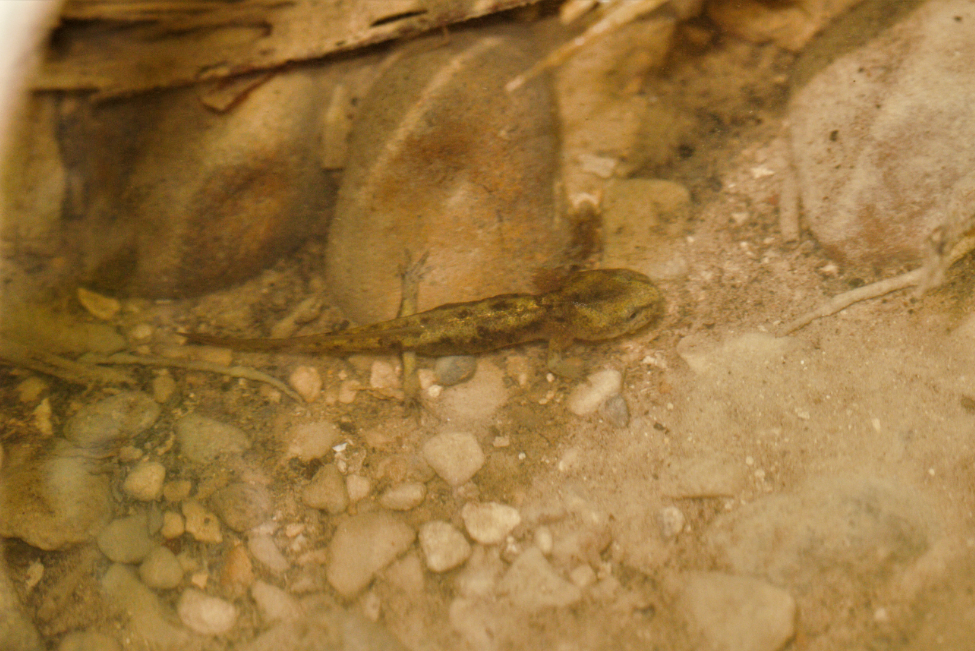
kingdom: Animalia
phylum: Chordata
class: Amphibia
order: Caudata
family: Salamandridae
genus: Salamandra
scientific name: Salamandra salamandra
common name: Fire salamander
